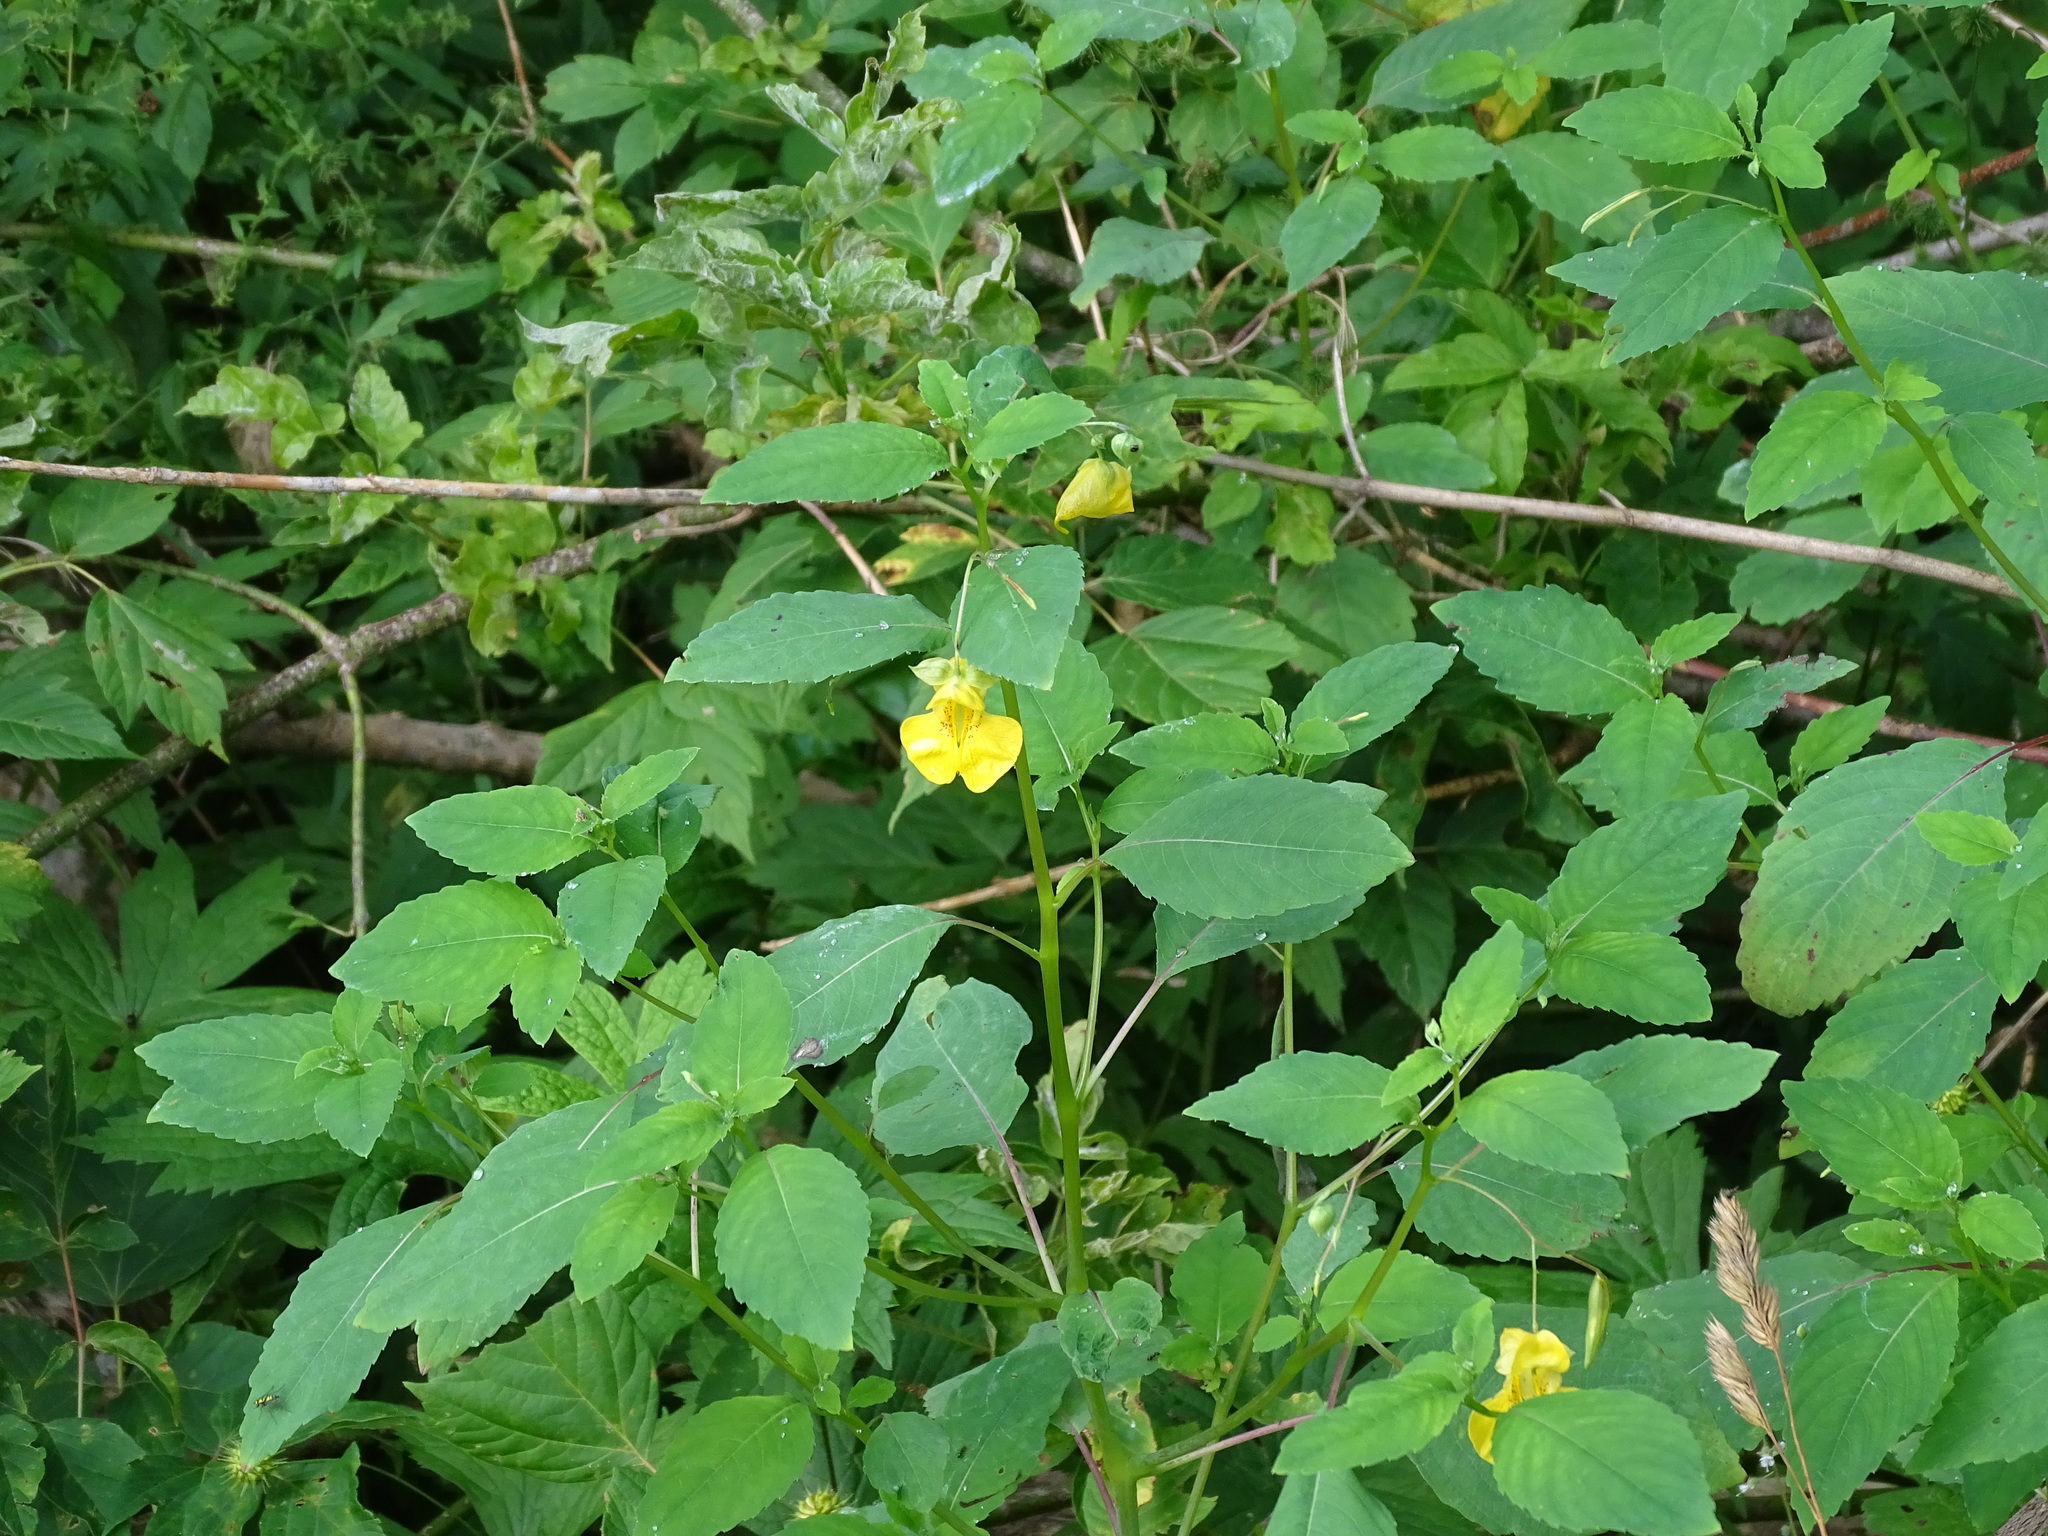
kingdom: Plantae
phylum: Tracheophyta
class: Magnoliopsida
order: Ericales
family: Balsaminaceae
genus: Impatiens
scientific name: Impatiens pallida
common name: Pale snapweed
